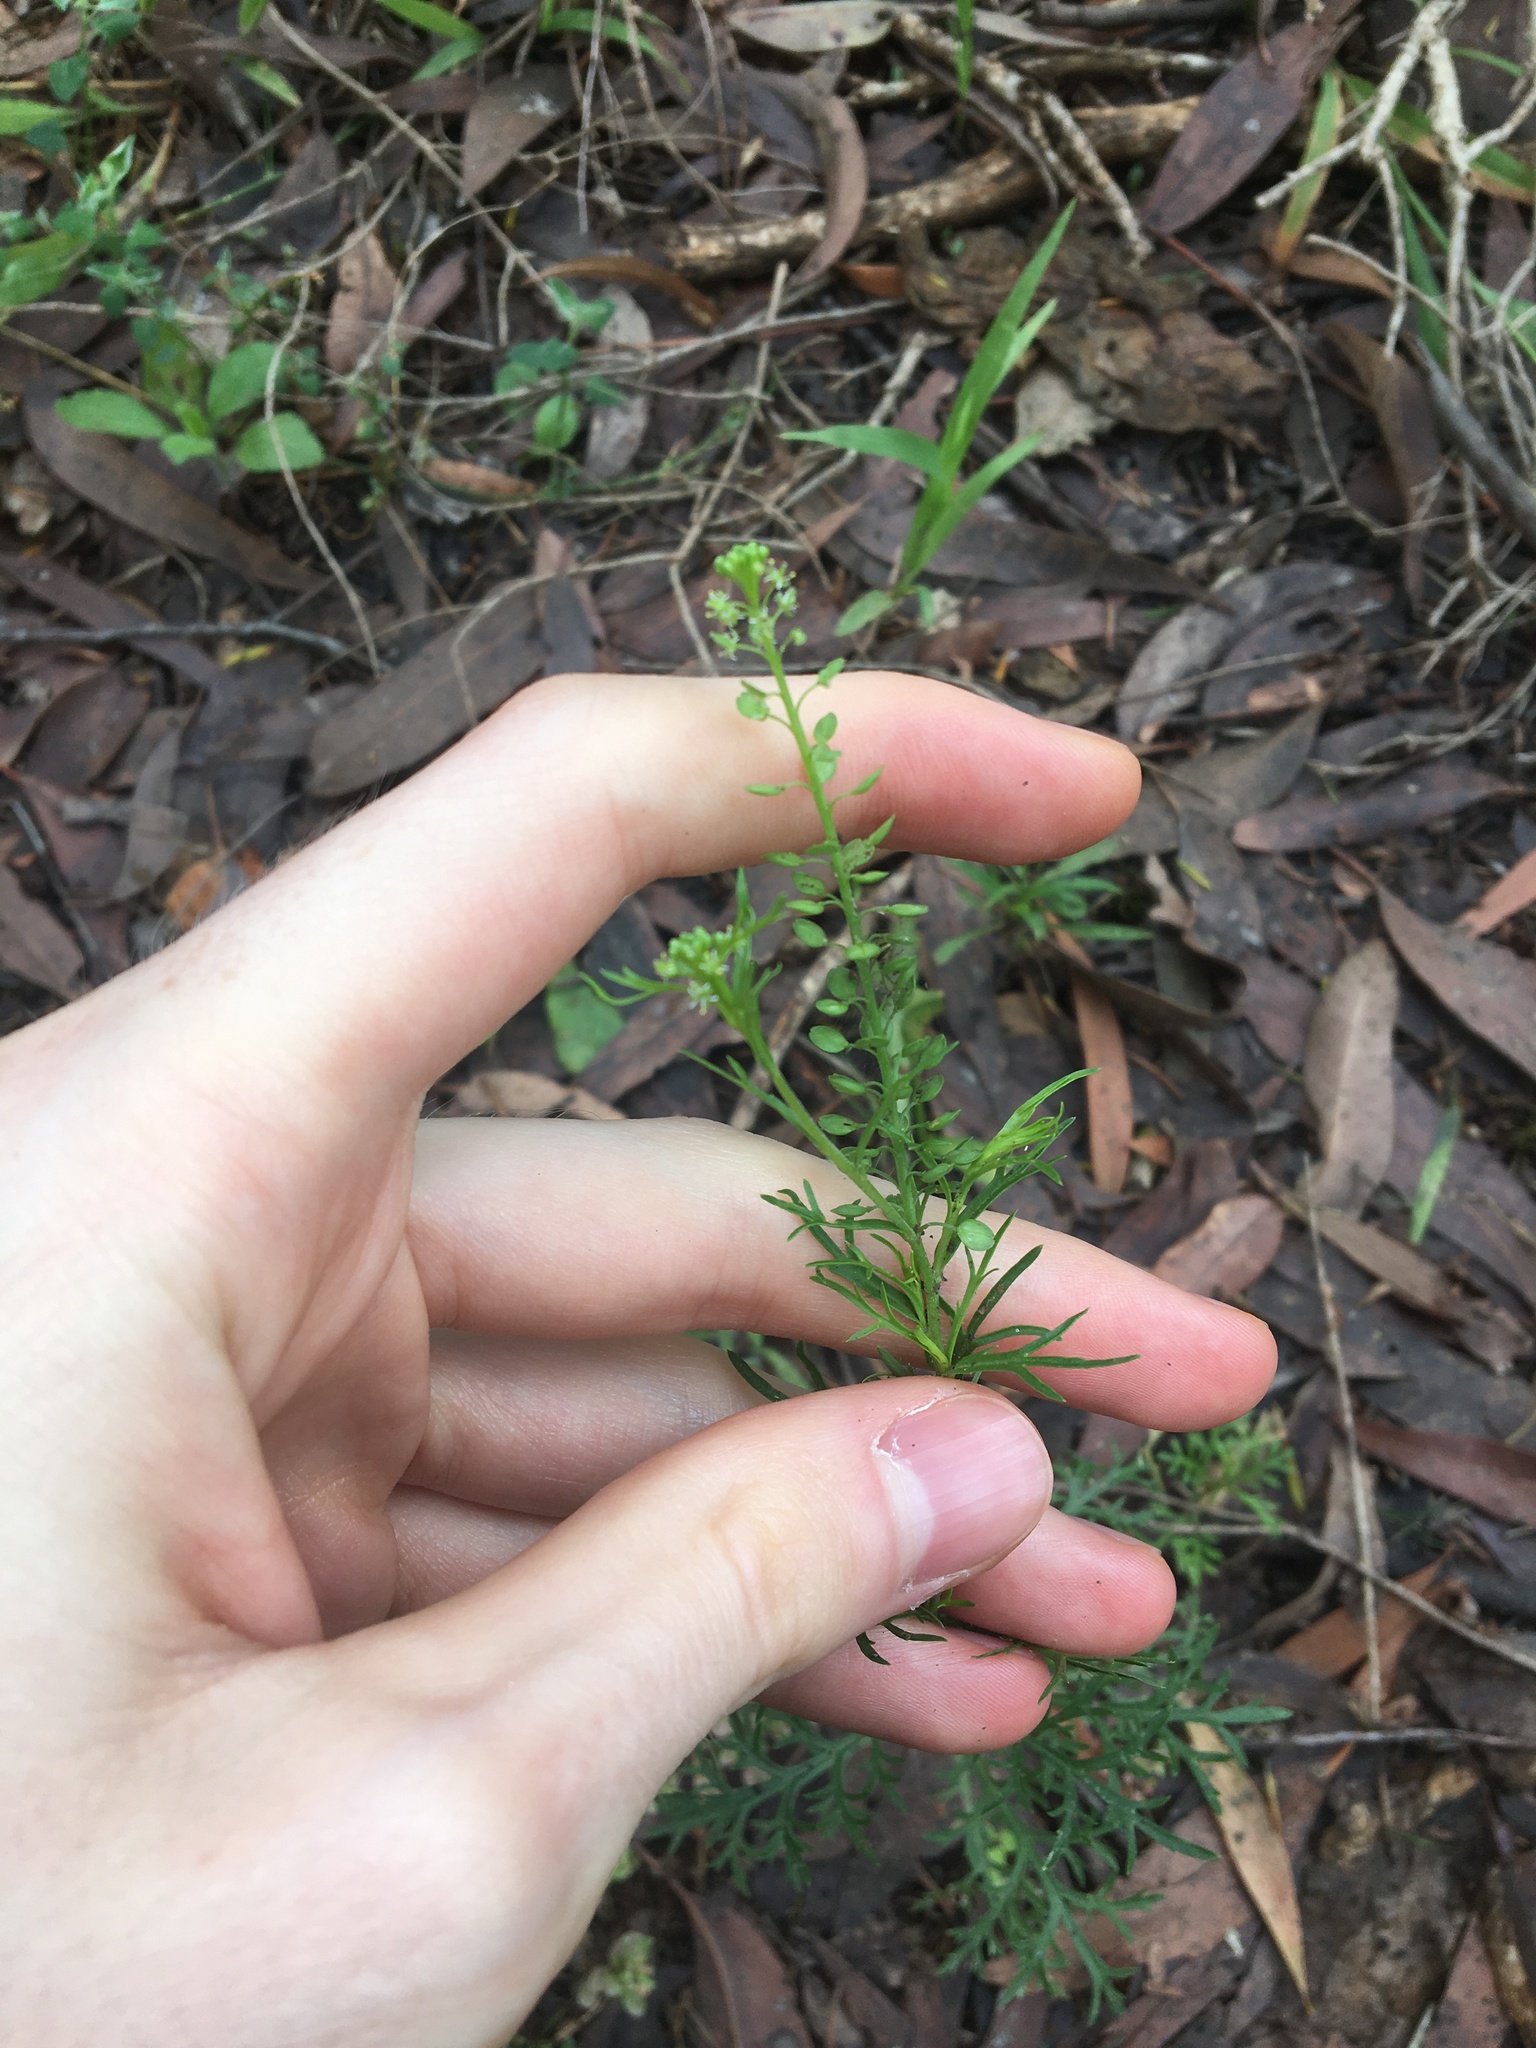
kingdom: Plantae
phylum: Tracheophyta
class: Magnoliopsida
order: Brassicales
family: Brassicaceae
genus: Lepidium
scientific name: Lepidium bonariense
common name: Argentine pepperwort
